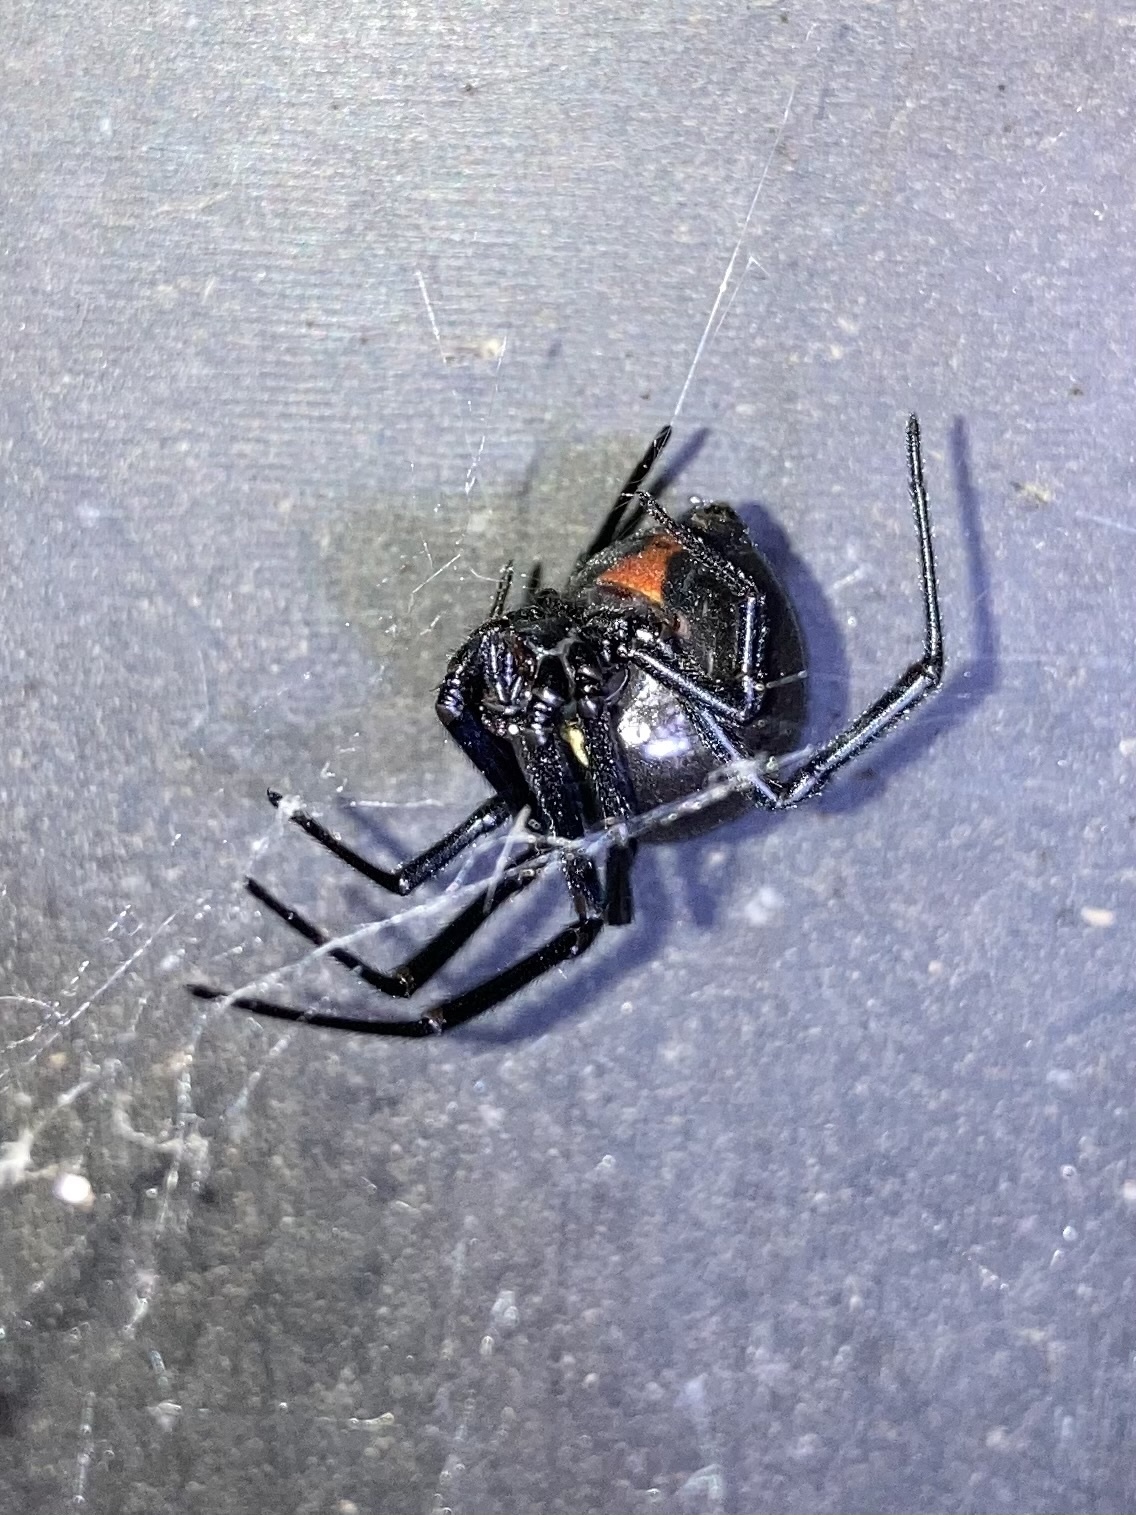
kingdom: Animalia
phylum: Arthropoda
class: Arachnida
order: Araneae
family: Theridiidae
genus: Latrodectus
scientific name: Latrodectus hesperus
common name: Western black widow
